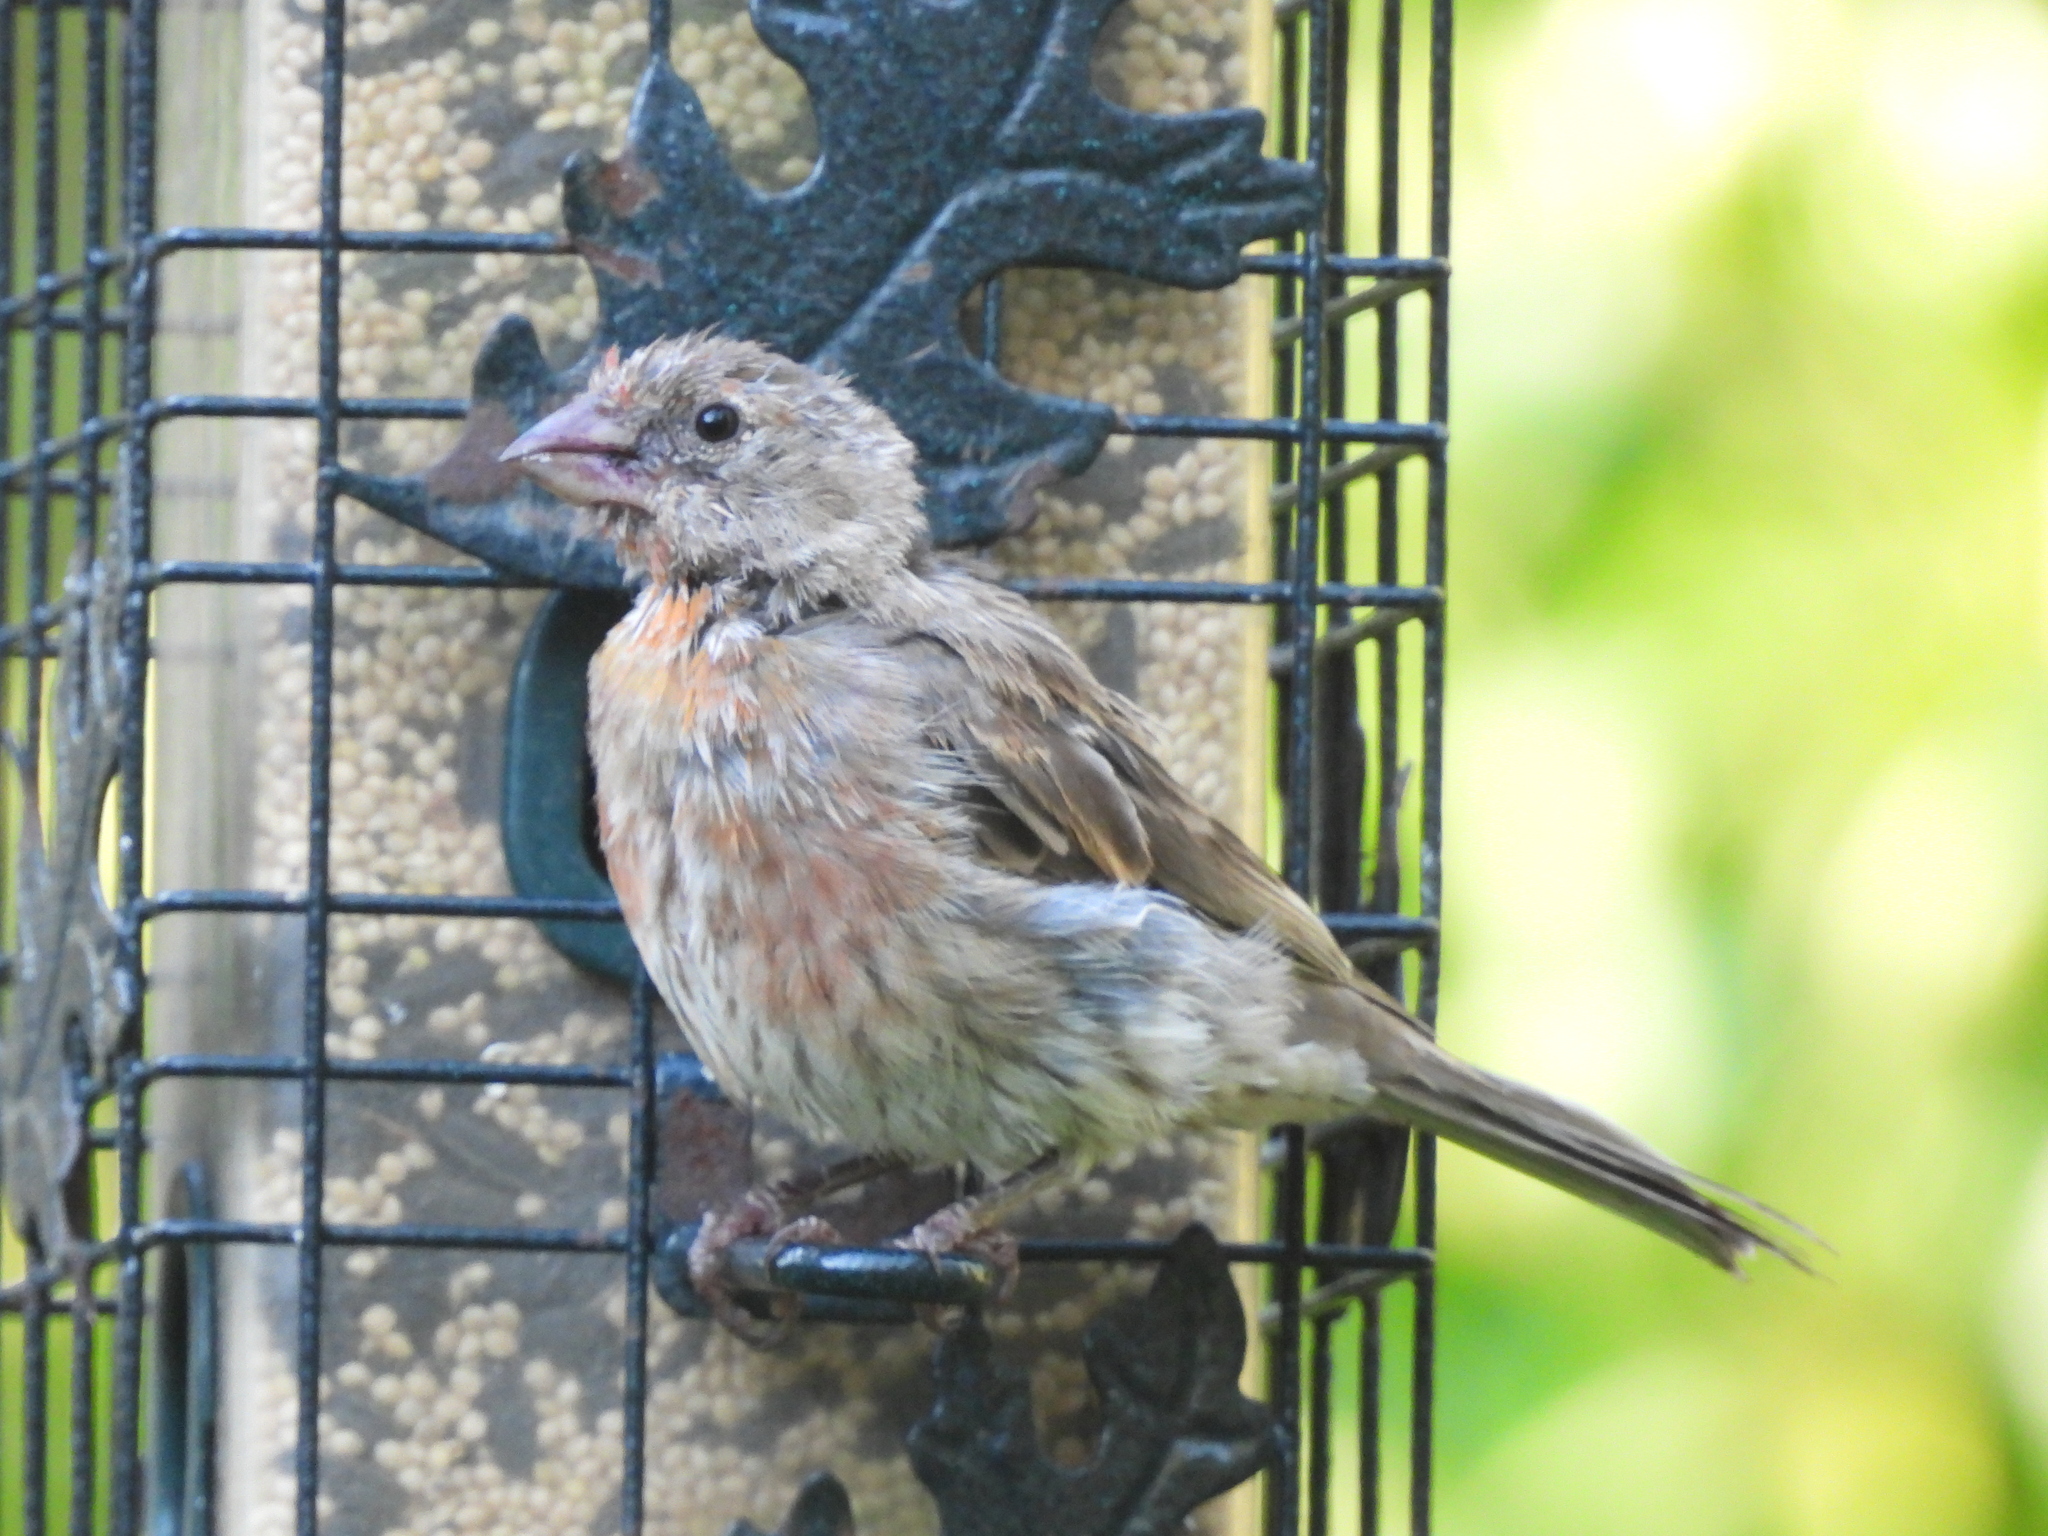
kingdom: Animalia
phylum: Chordata
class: Aves
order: Passeriformes
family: Fringillidae
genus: Haemorhous
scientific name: Haemorhous mexicanus
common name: House finch
